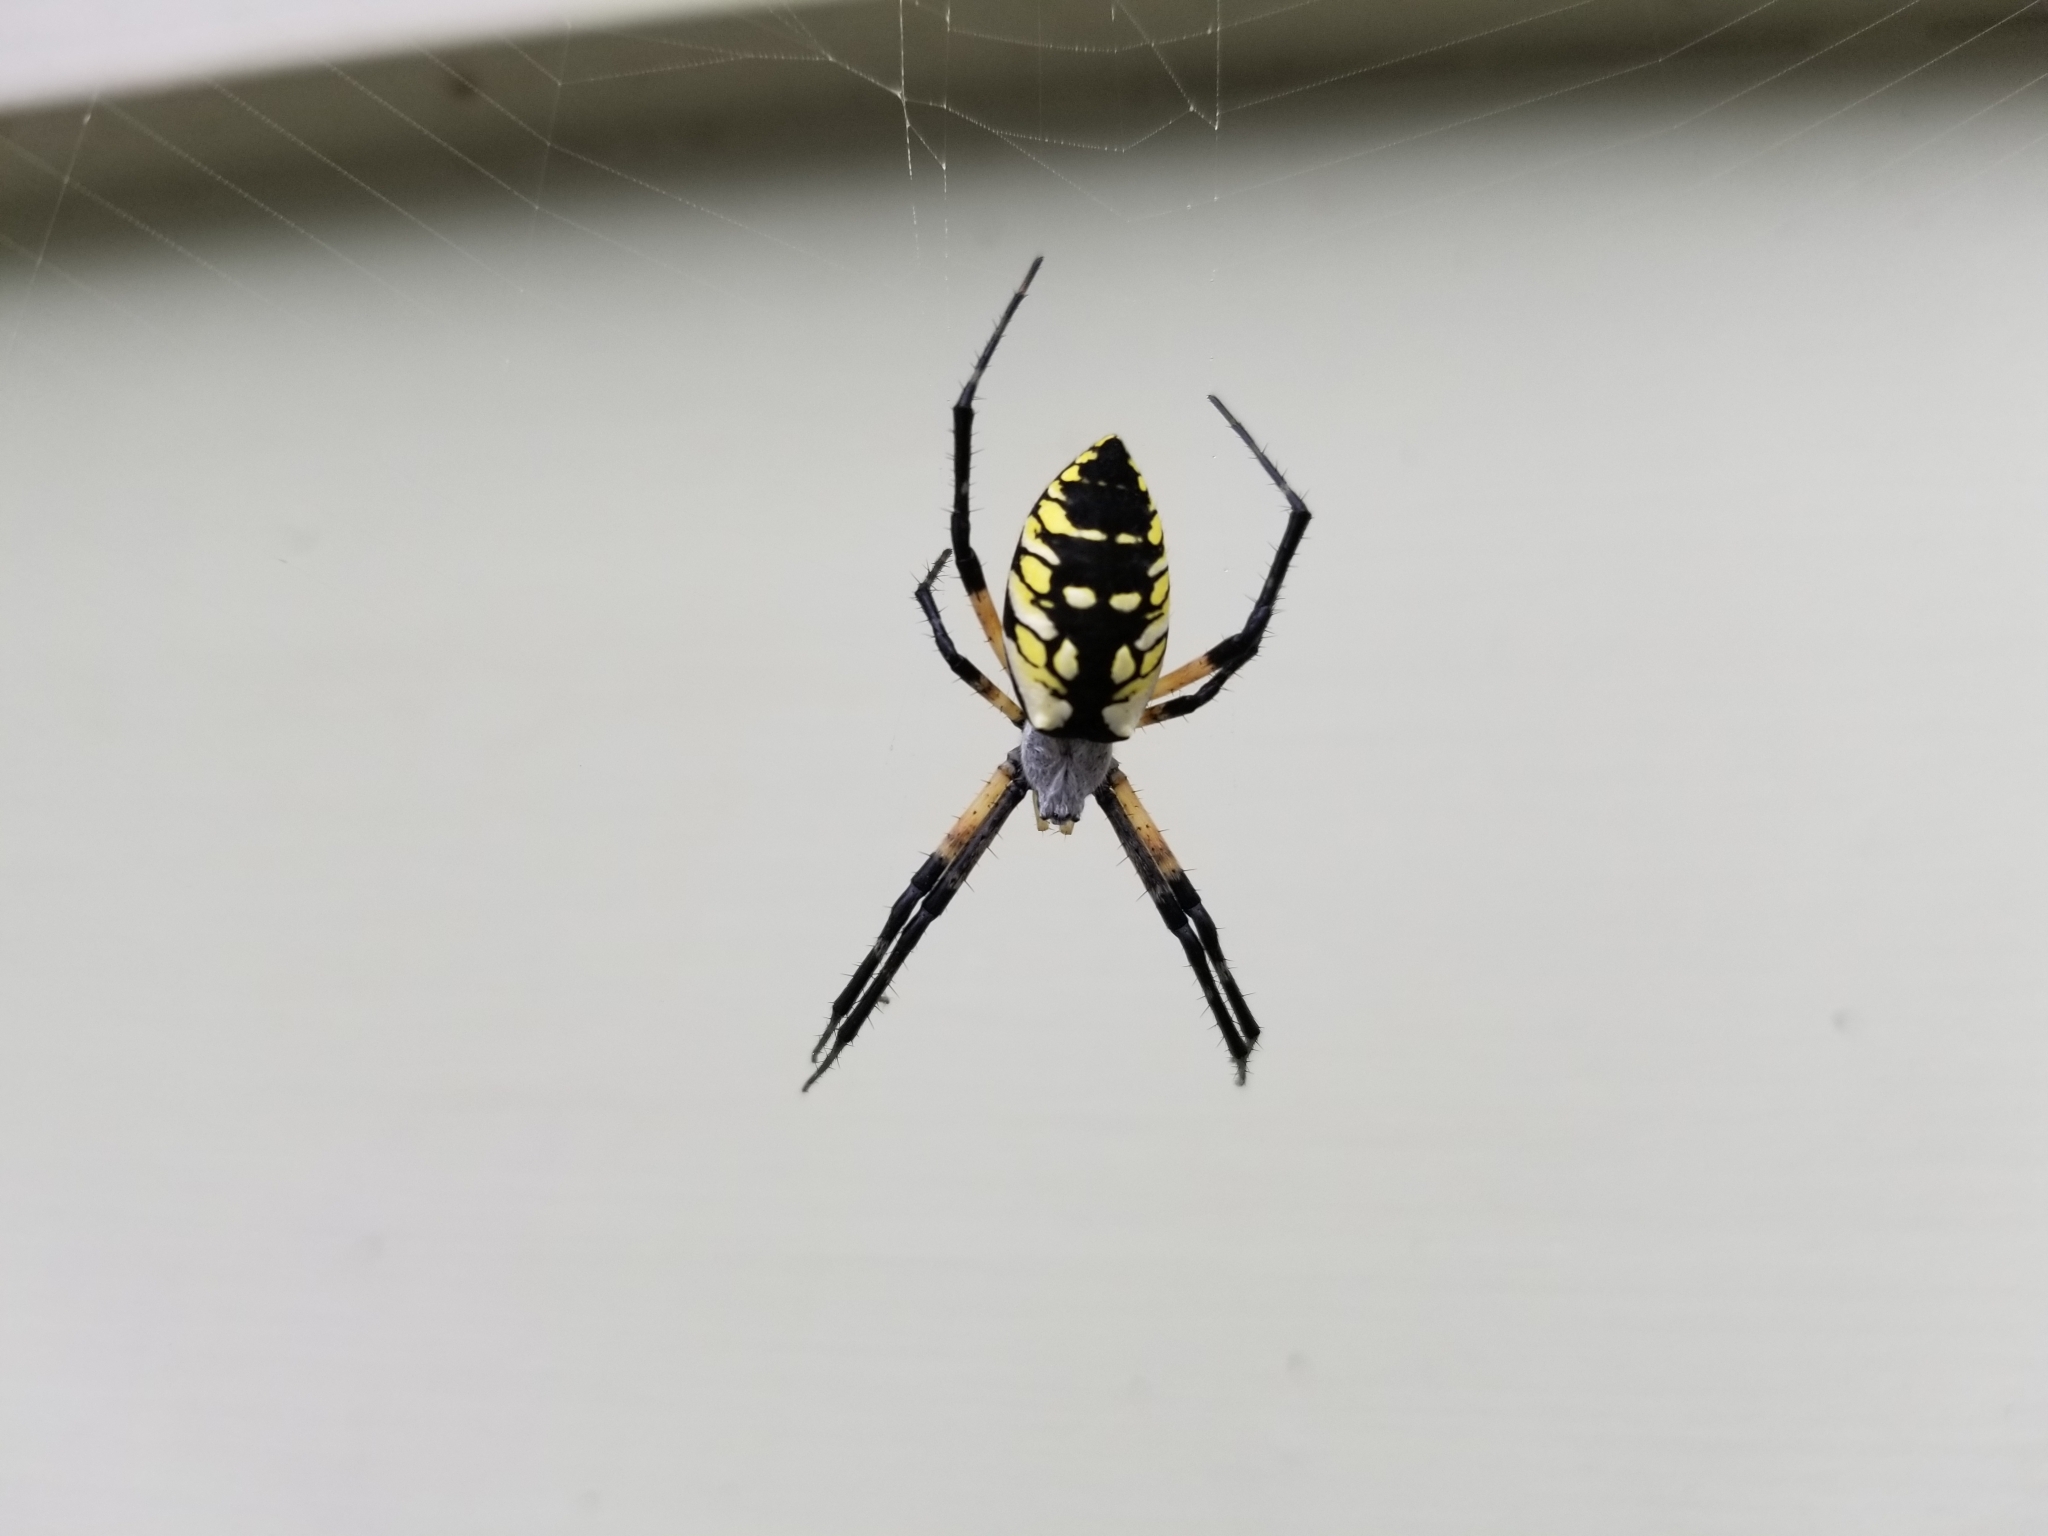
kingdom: Animalia
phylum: Arthropoda
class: Arachnida
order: Araneae
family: Araneidae
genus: Argiope
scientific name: Argiope aurantia
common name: Orb weavers
